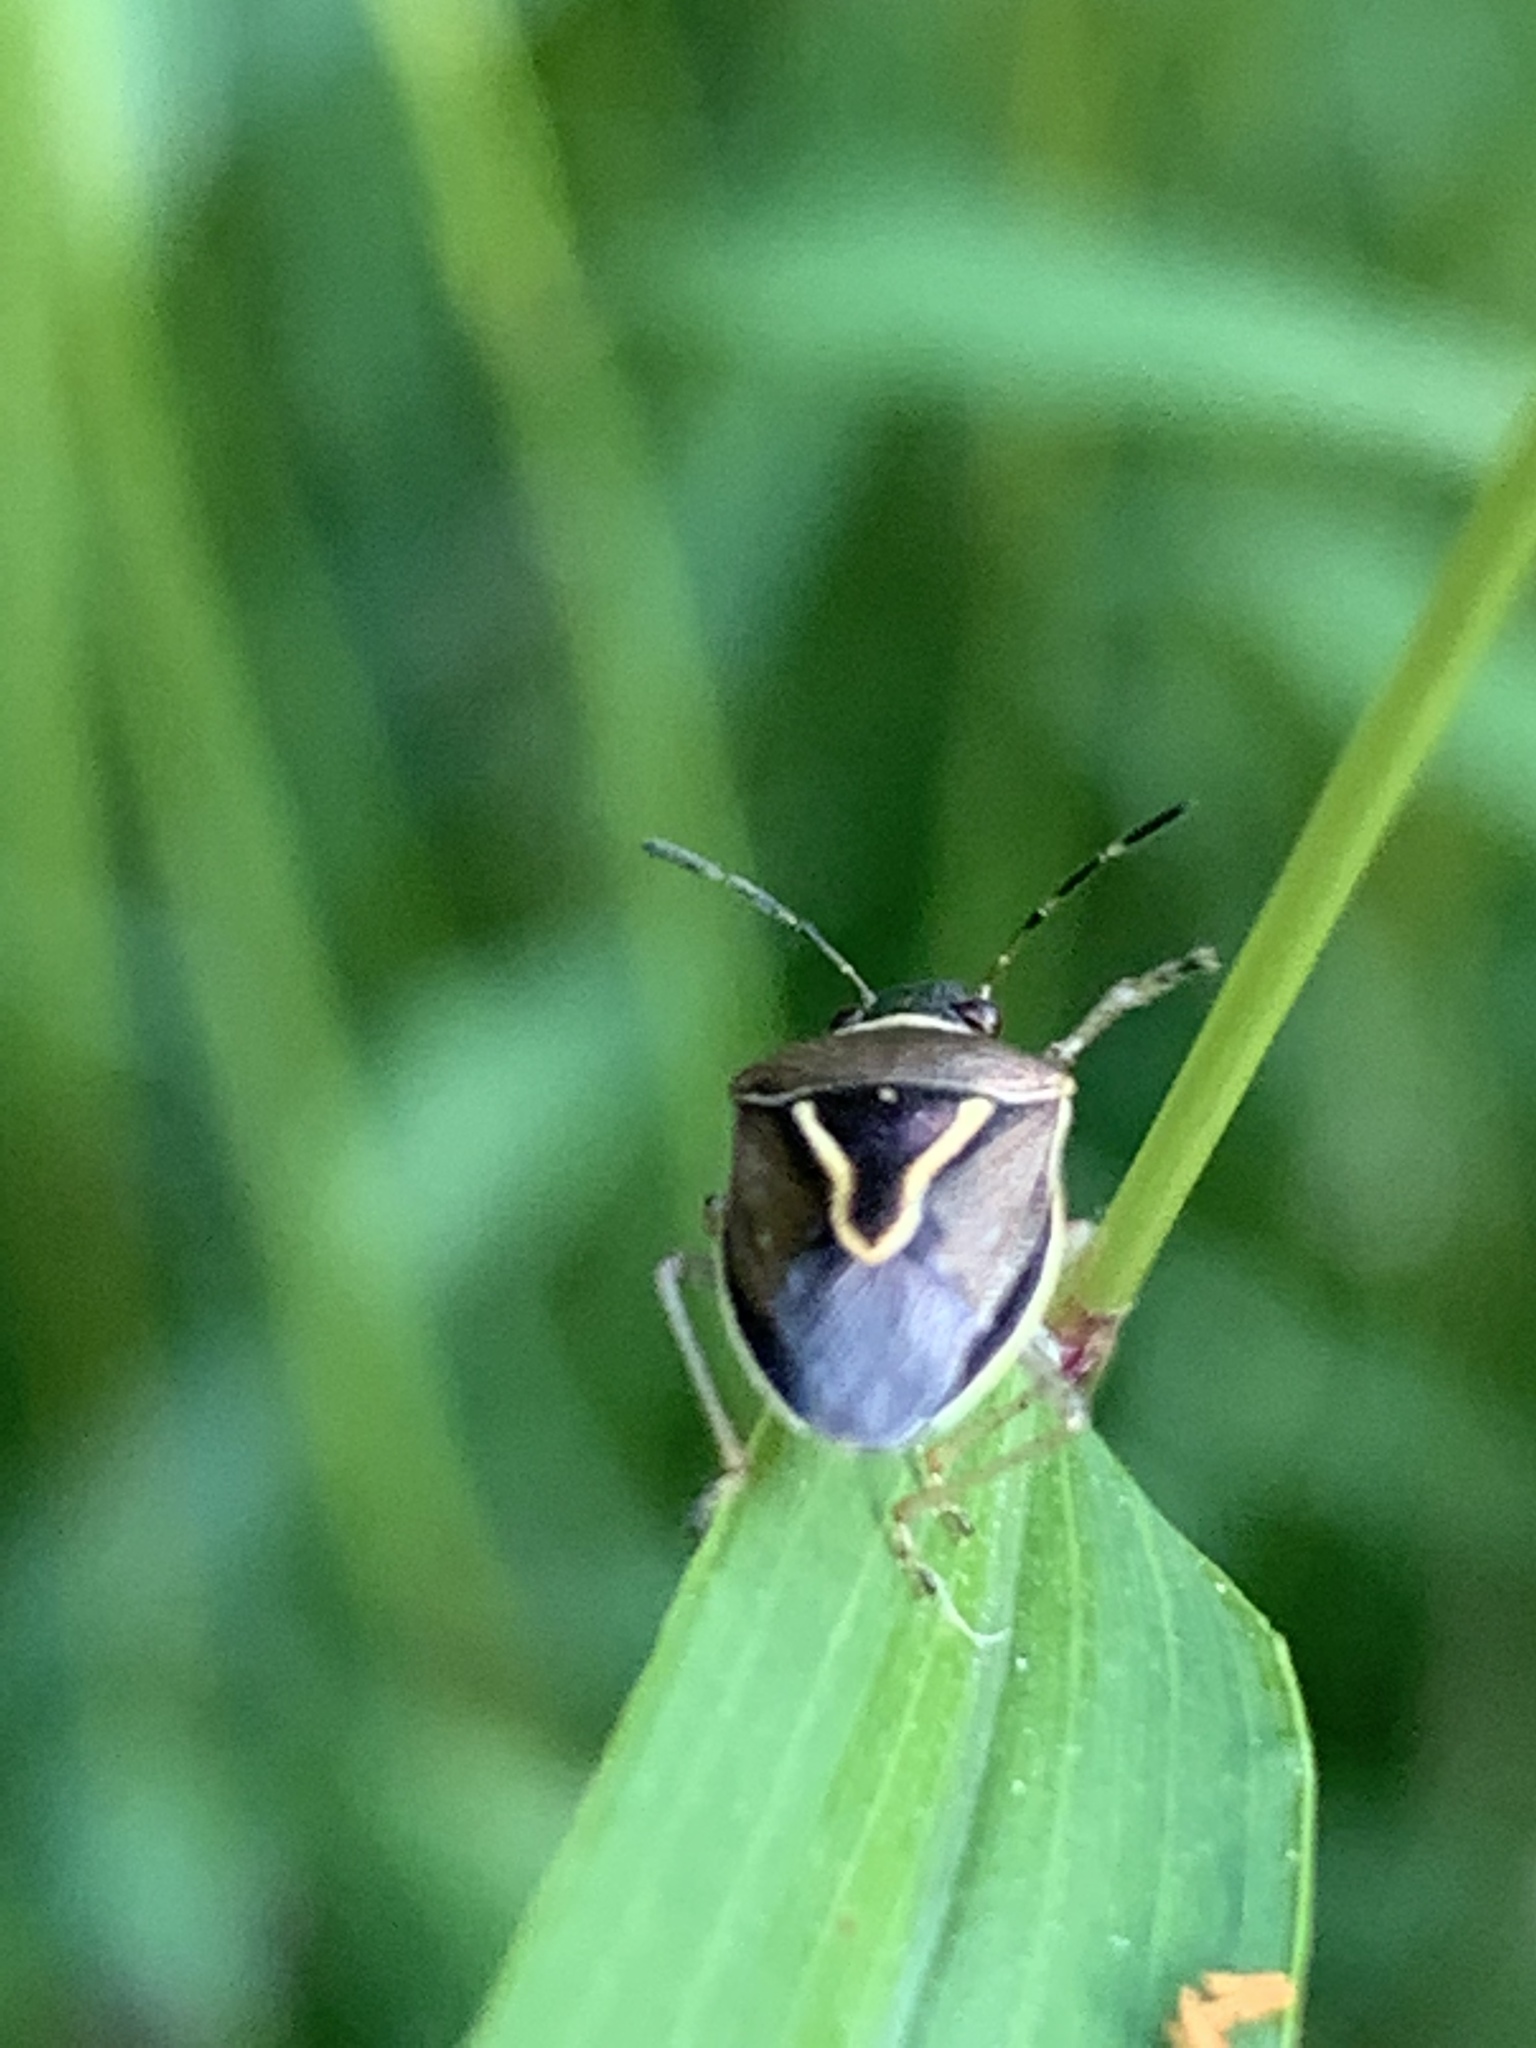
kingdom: Animalia
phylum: Arthropoda
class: Insecta
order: Hemiptera
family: Pentatomidae
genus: Mormidea
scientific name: Mormidea lugens
